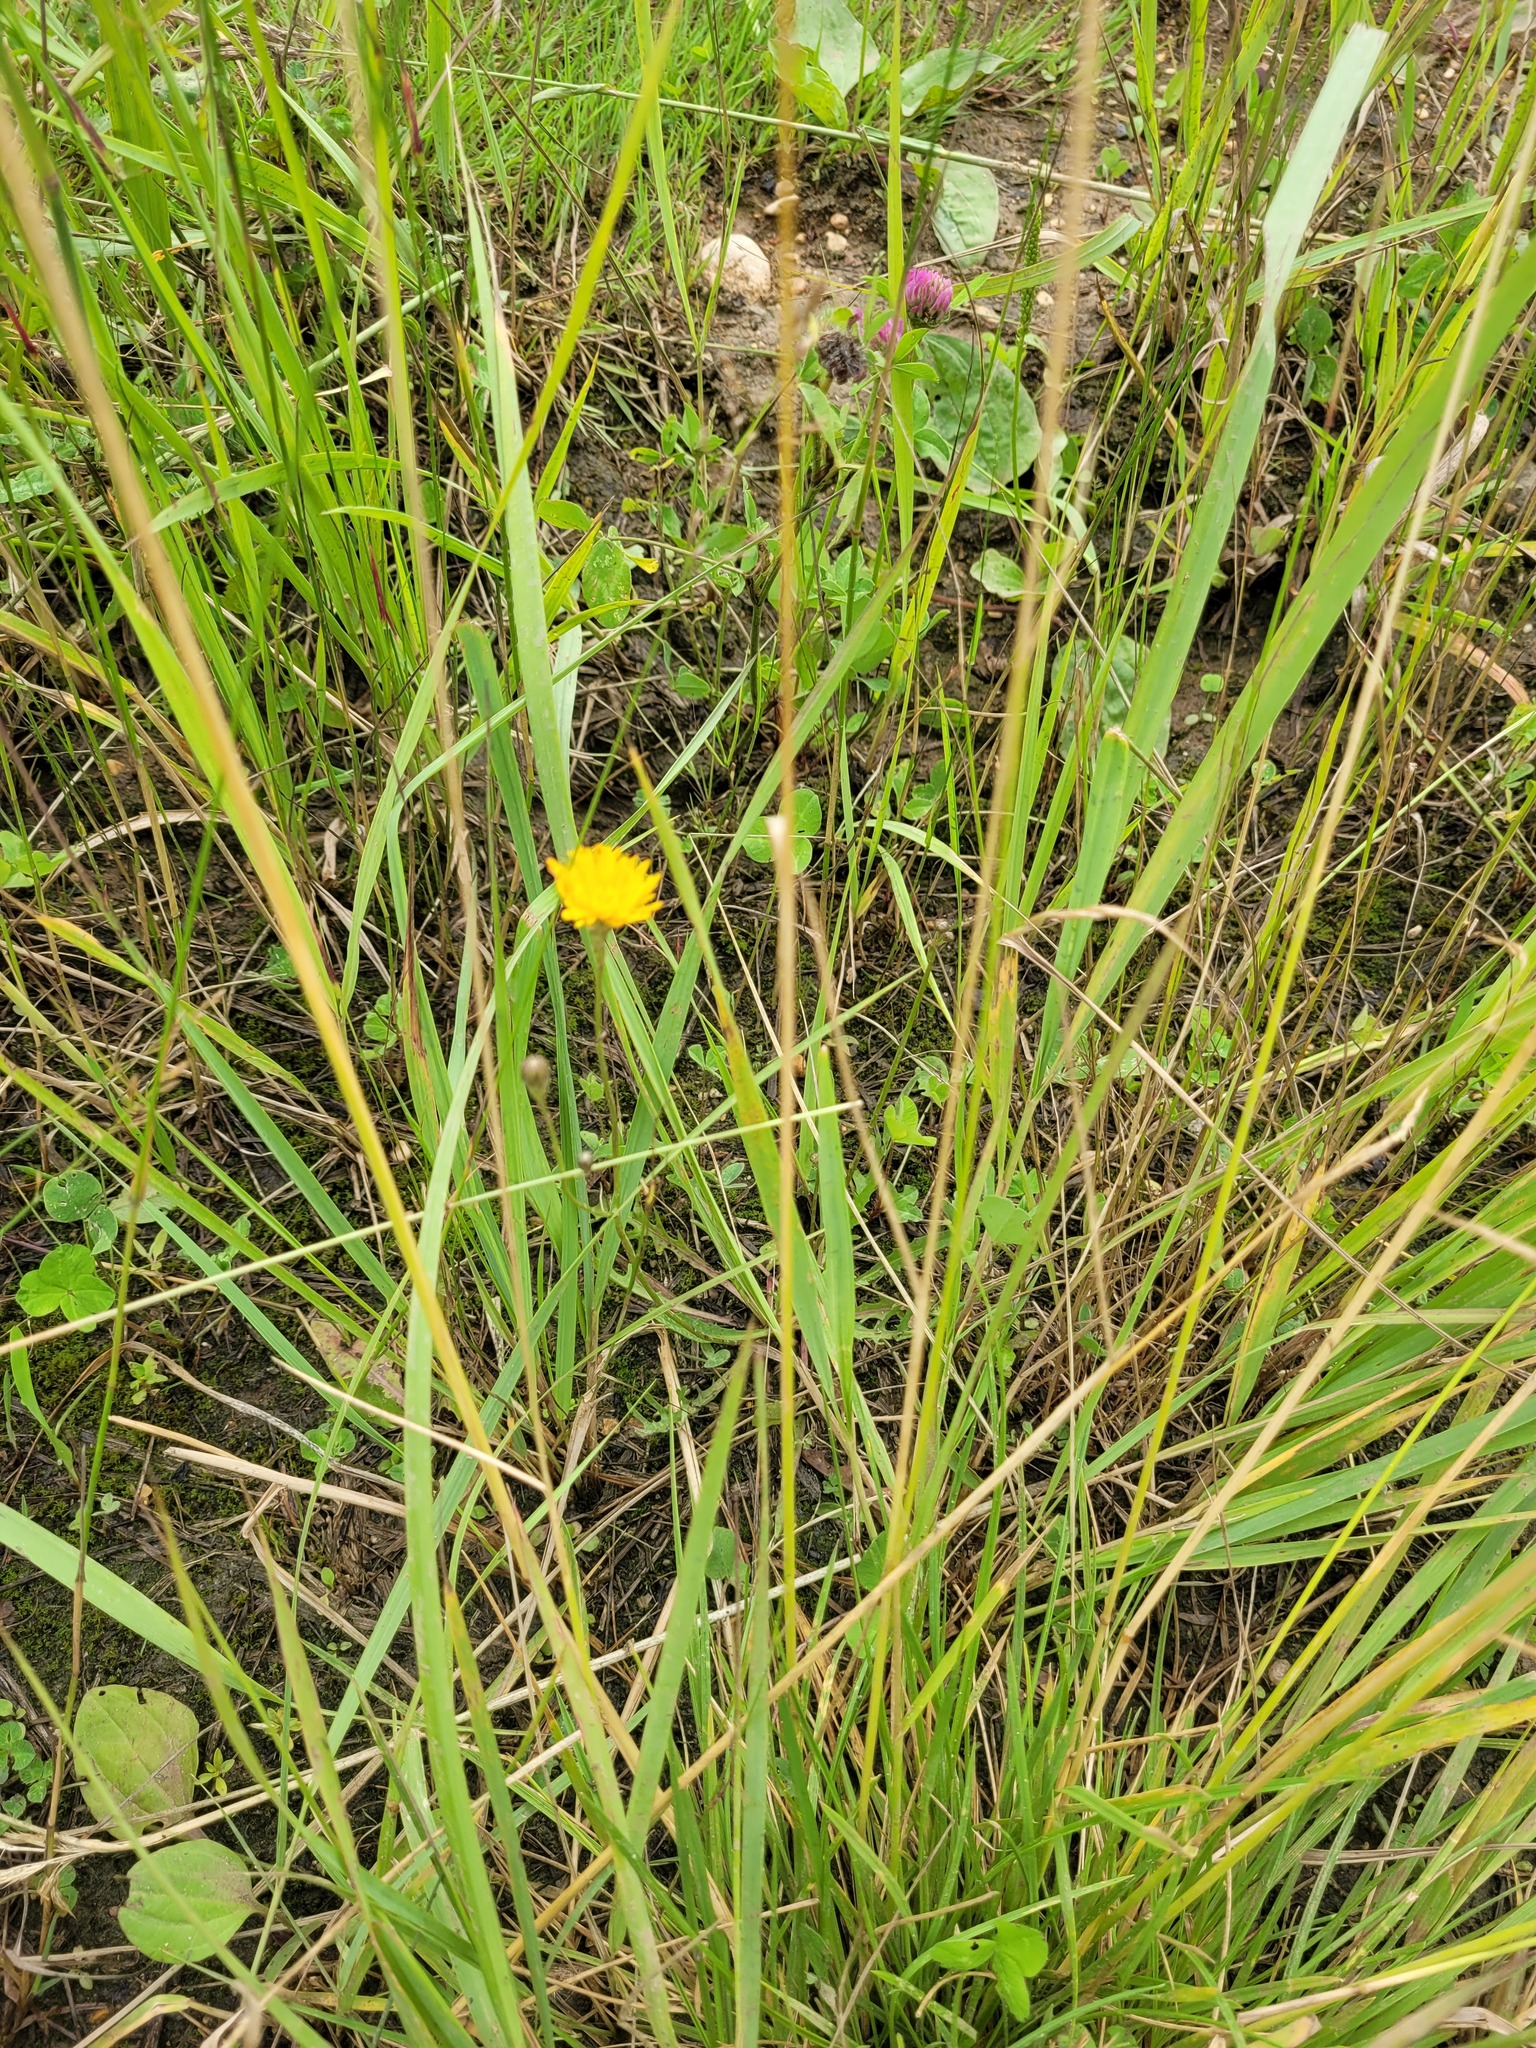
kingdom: Plantae
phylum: Tracheophyta
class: Magnoliopsida
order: Asterales
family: Asteraceae
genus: Scorzoneroides
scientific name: Scorzoneroides autumnalis
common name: Autumn hawkbit
